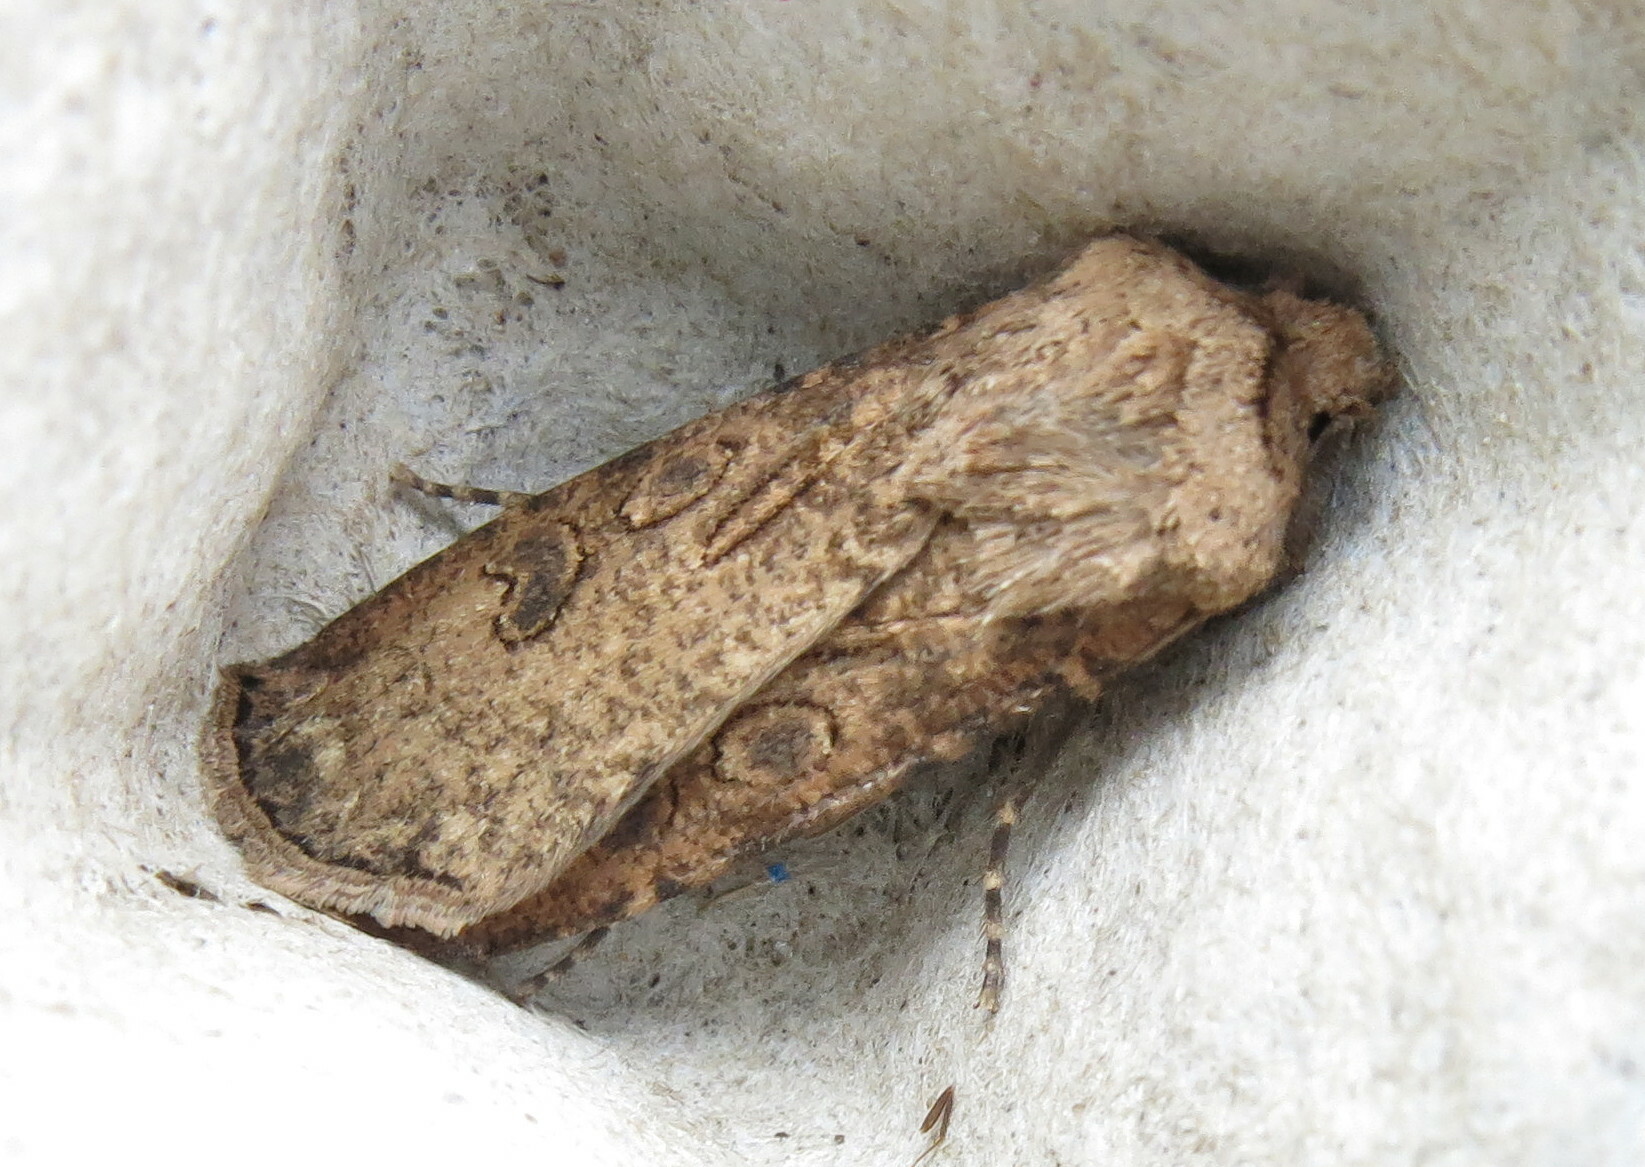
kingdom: Animalia
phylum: Arthropoda
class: Insecta
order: Lepidoptera
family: Noctuidae
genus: Agrotis
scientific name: Agrotis segetum
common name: Turnip moth
